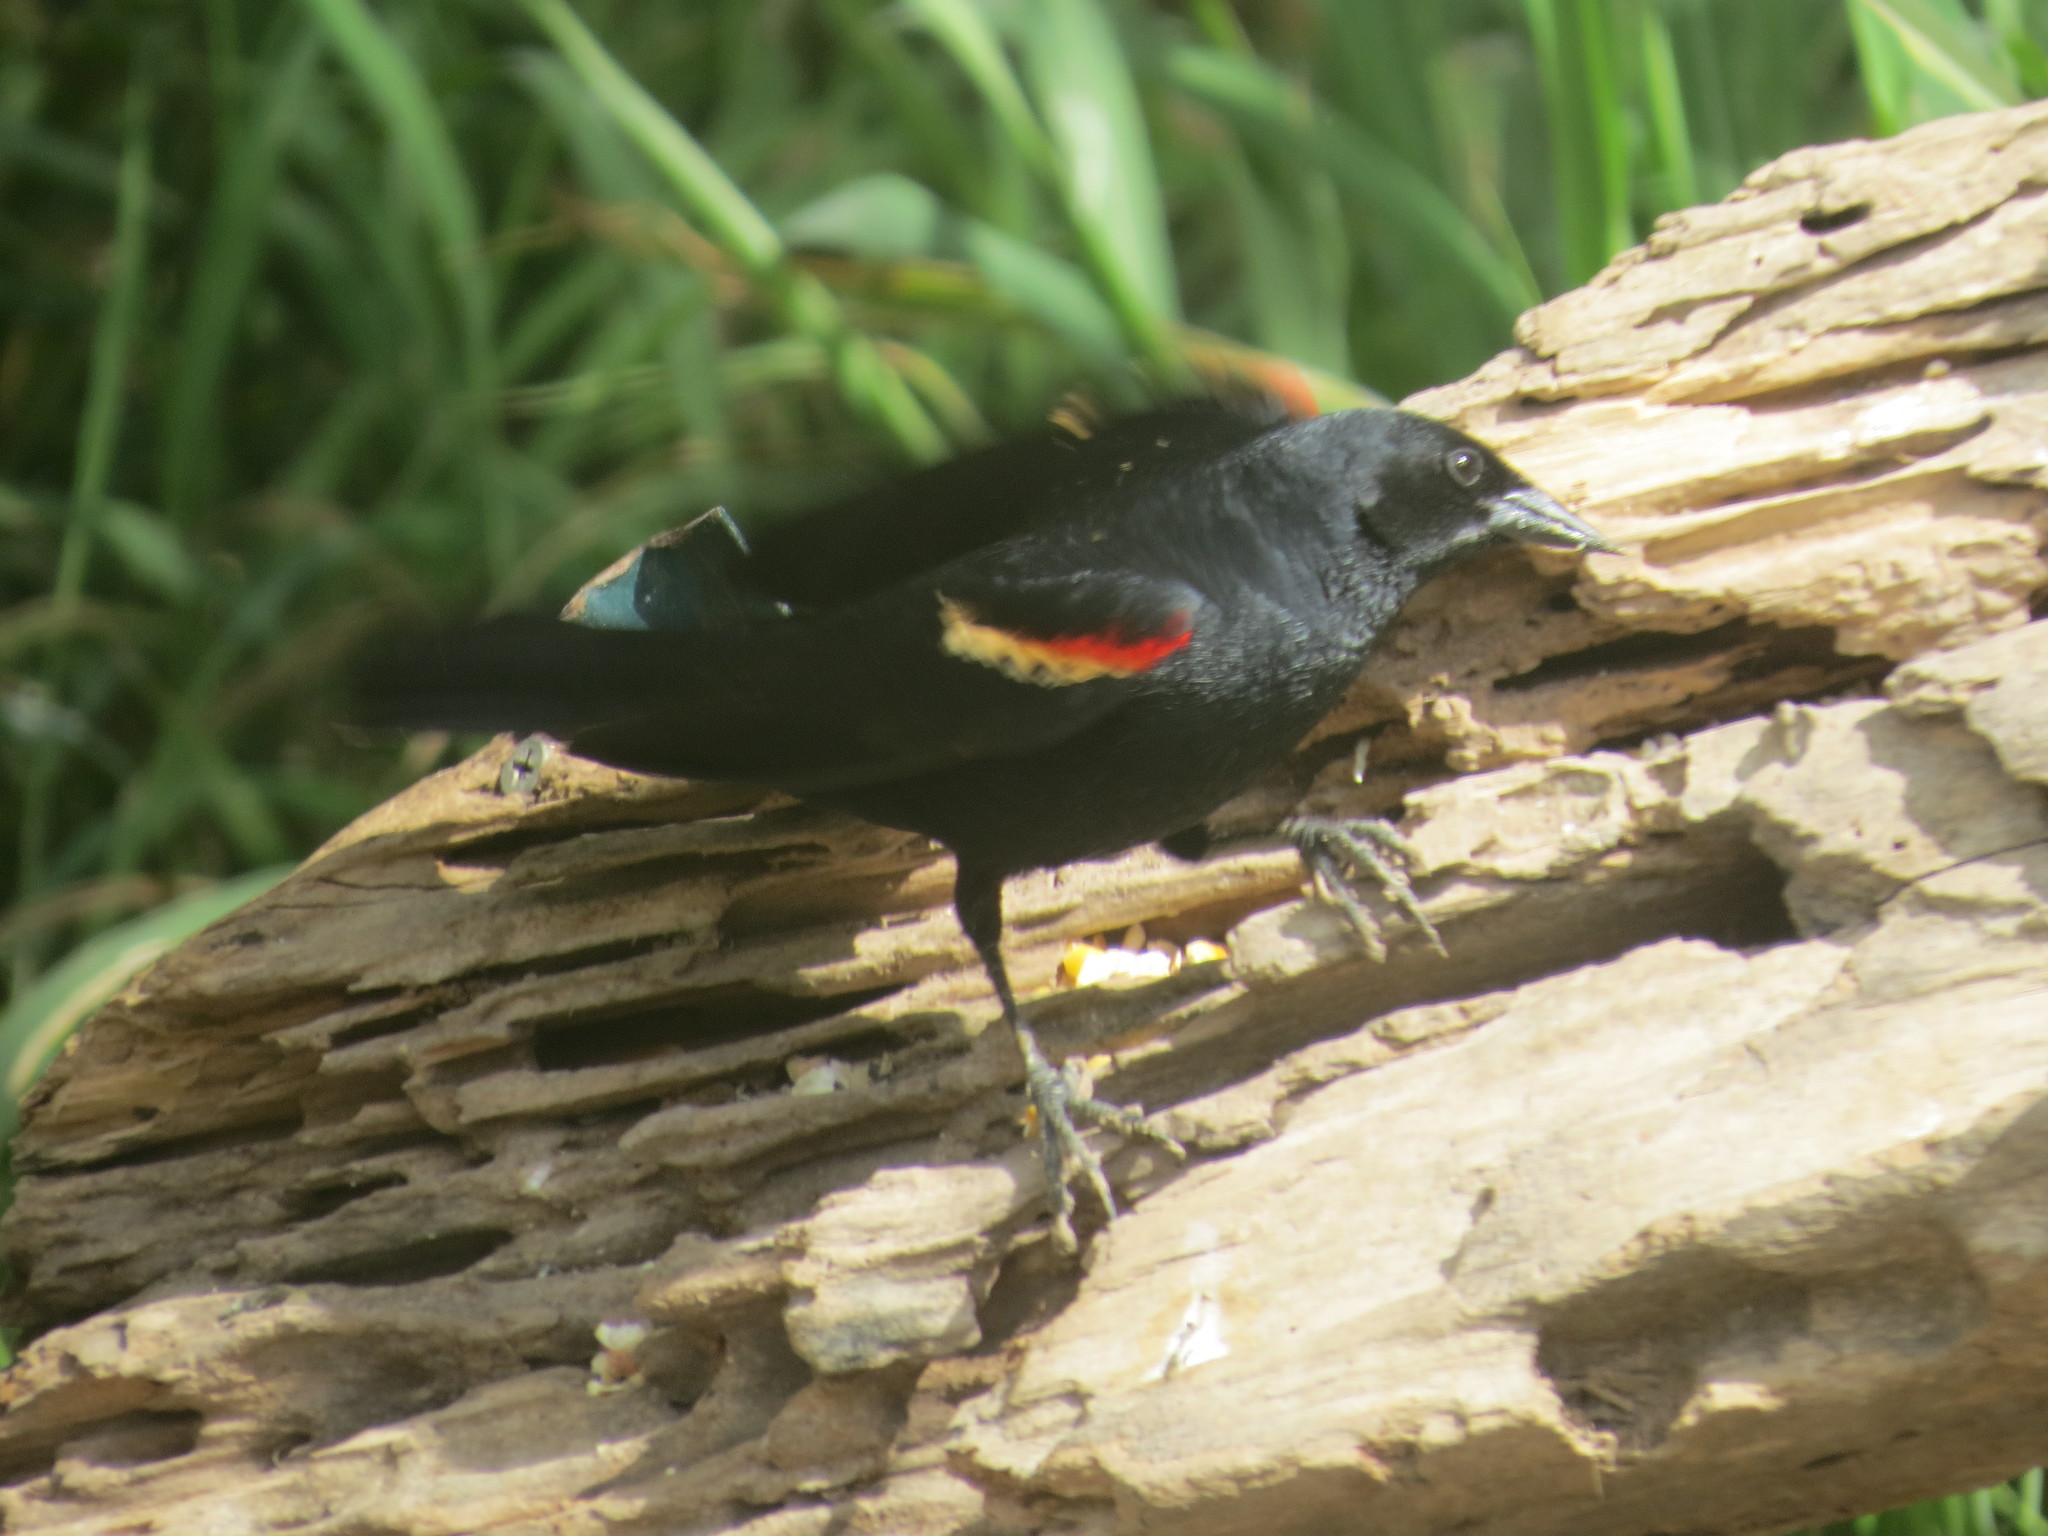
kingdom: Animalia
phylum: Chordata
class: Aves
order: Passeriformes
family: Icteridae
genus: Agelaius
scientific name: Agelaius phoeniceus
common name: Red-winged blackbird
